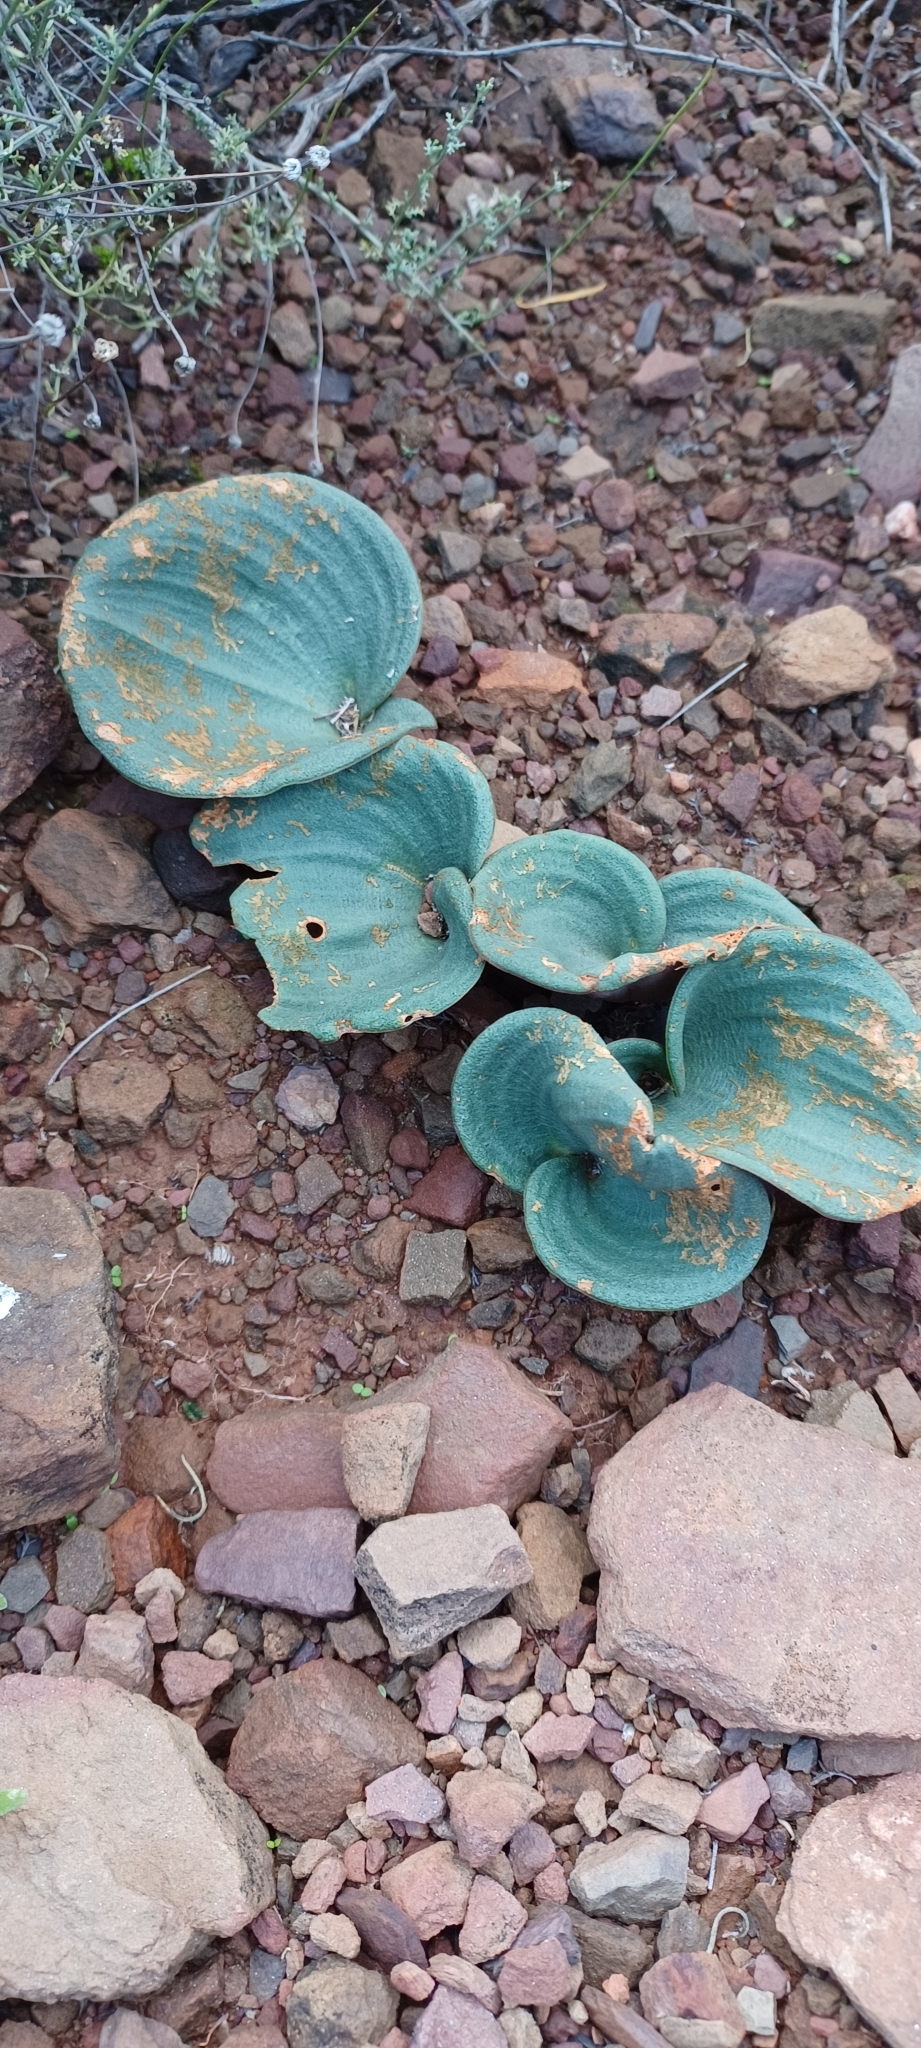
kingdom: Plantae
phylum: Tracheophyta
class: Liliopsida
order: Asparagales
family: Asparagaceae
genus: Eriospermum
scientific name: Eriospermum capense
